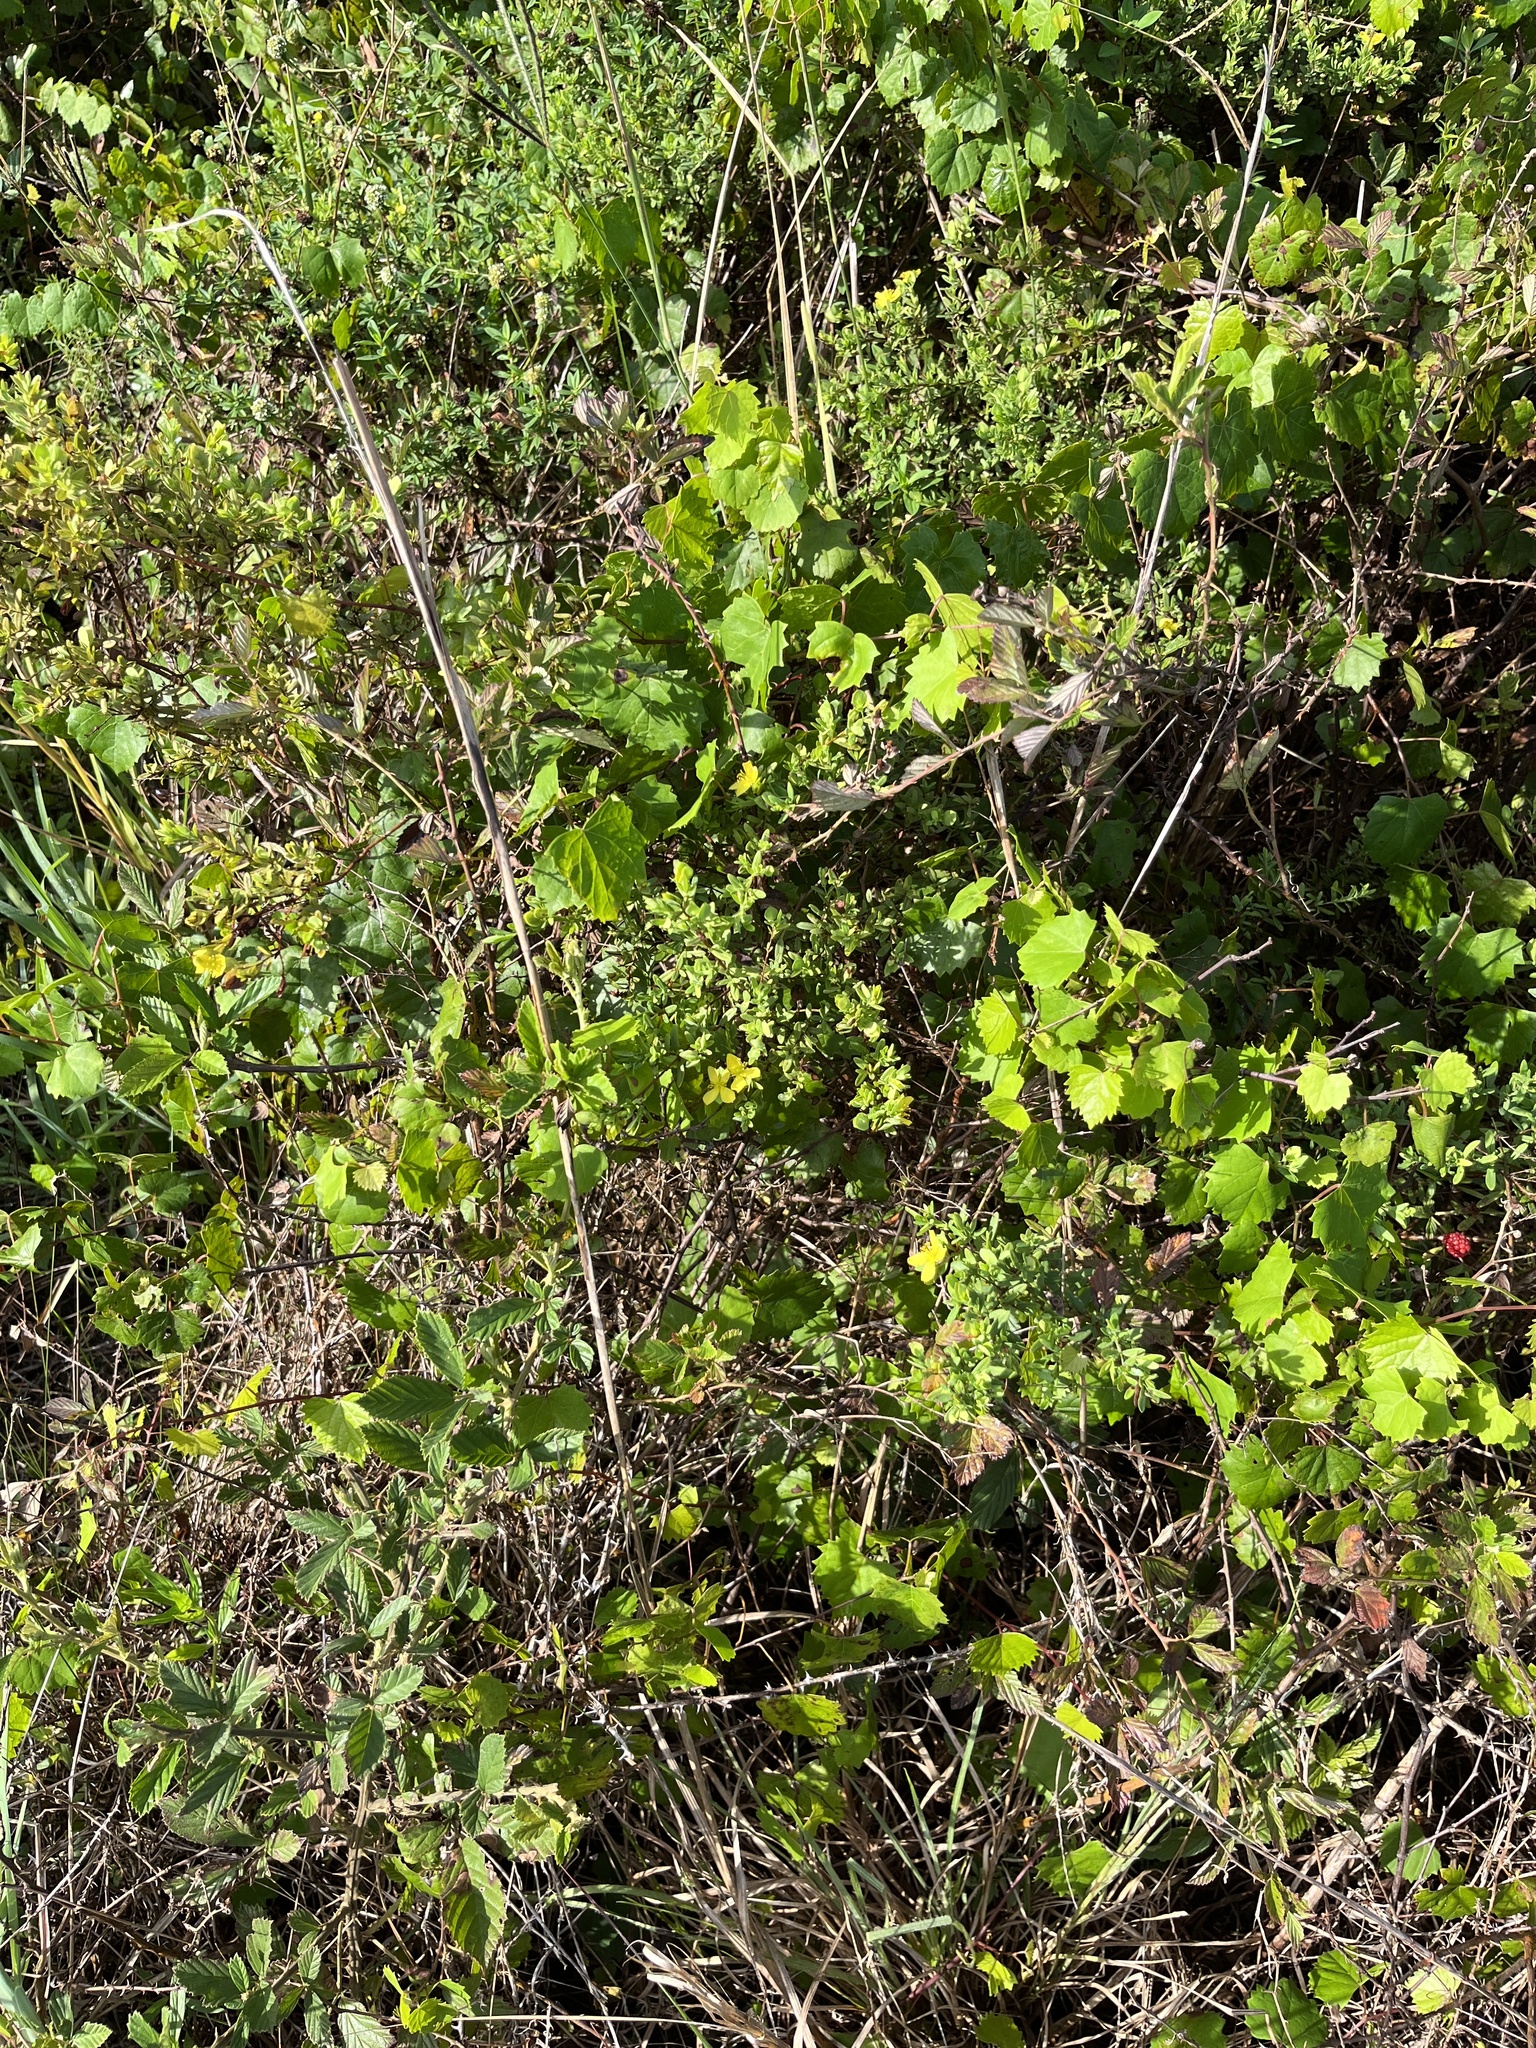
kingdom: Plantae
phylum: Tracheophyta
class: Magnoliopsida
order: Malpighiales
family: Hypericaceae
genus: Hypericum
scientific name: Hypericum hypericoides
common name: St. andrew's cross
